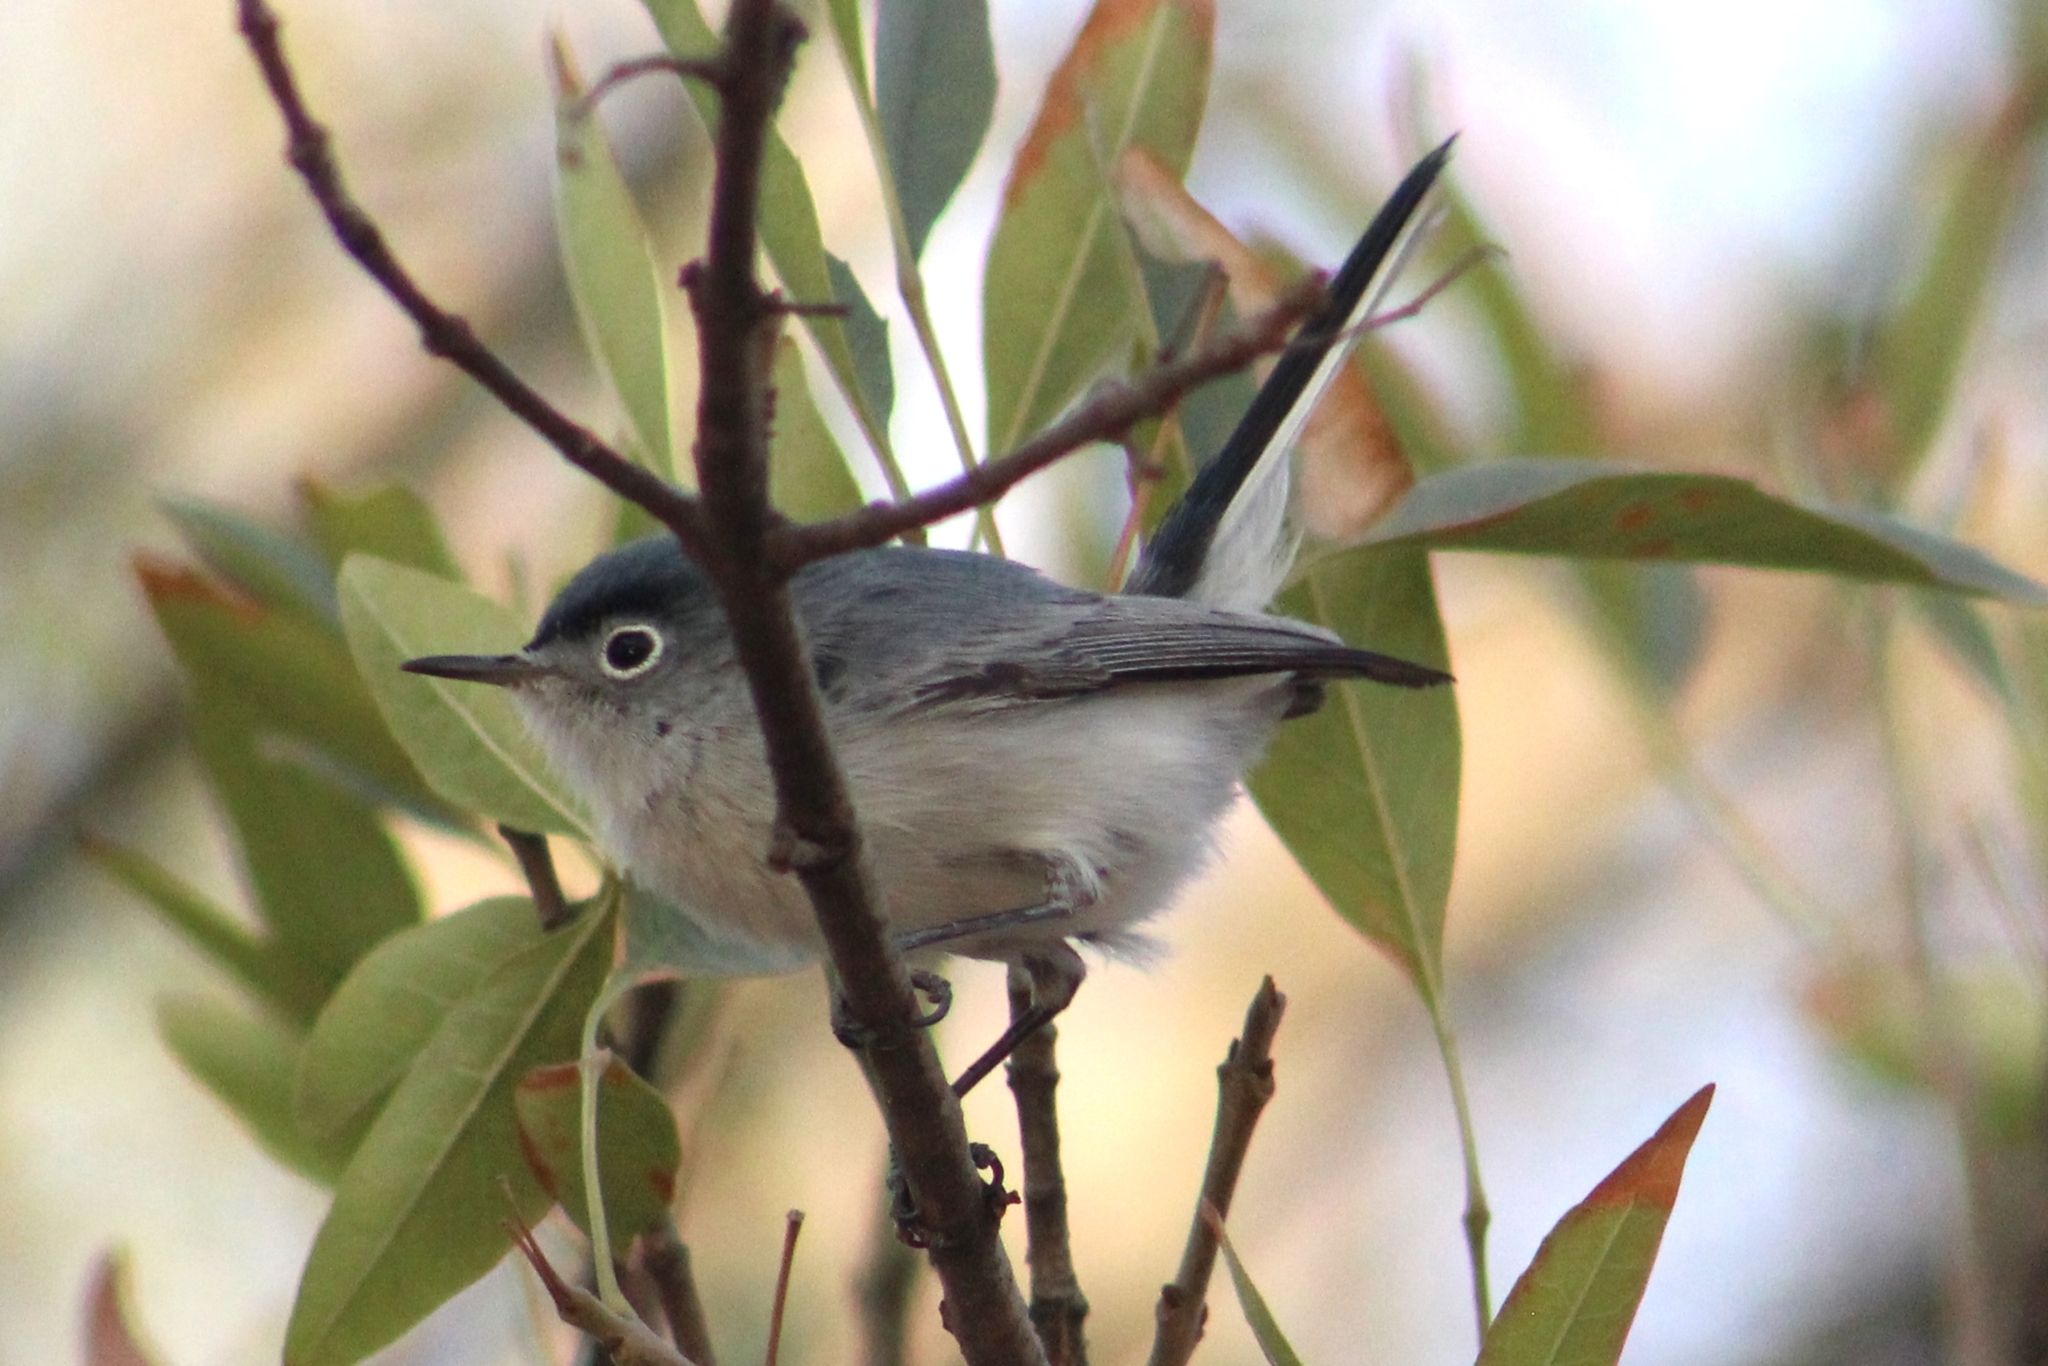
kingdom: Animalia
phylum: Chordata
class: Aves
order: Passeriformes
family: Polioptilidae
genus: Polioptila
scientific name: Polioptila caerulea
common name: Blue-gray gnatcatcher
